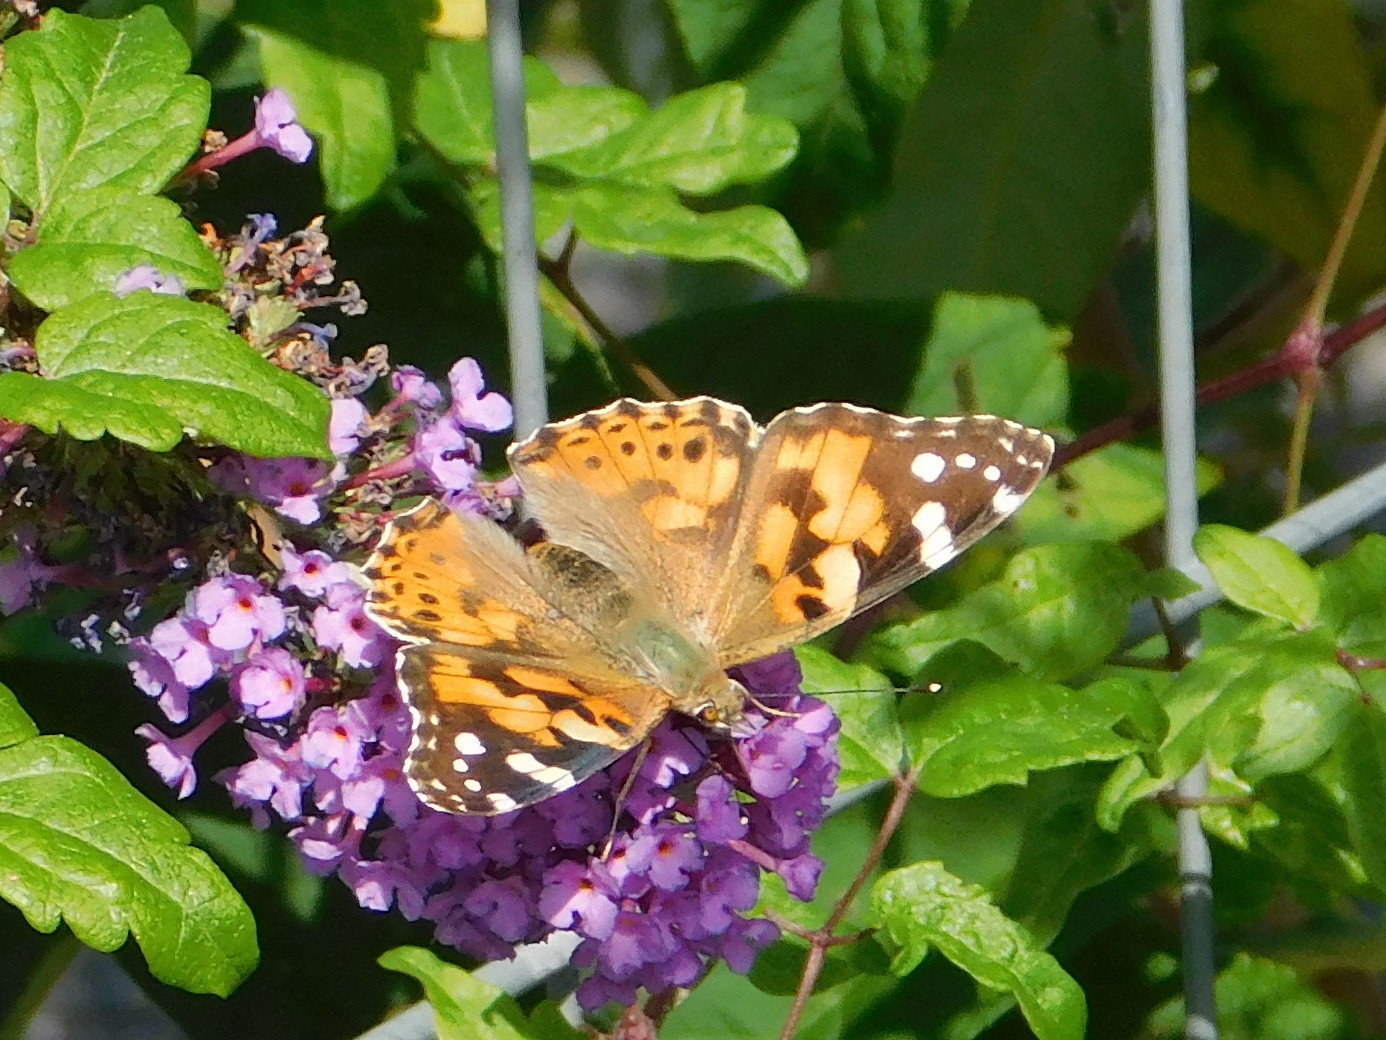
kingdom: Animalia
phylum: Arthropoda
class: Insecta
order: Lepidoptera
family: Nymphalidae
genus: Vanessa
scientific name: Vanessa cardui
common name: Painted lady
